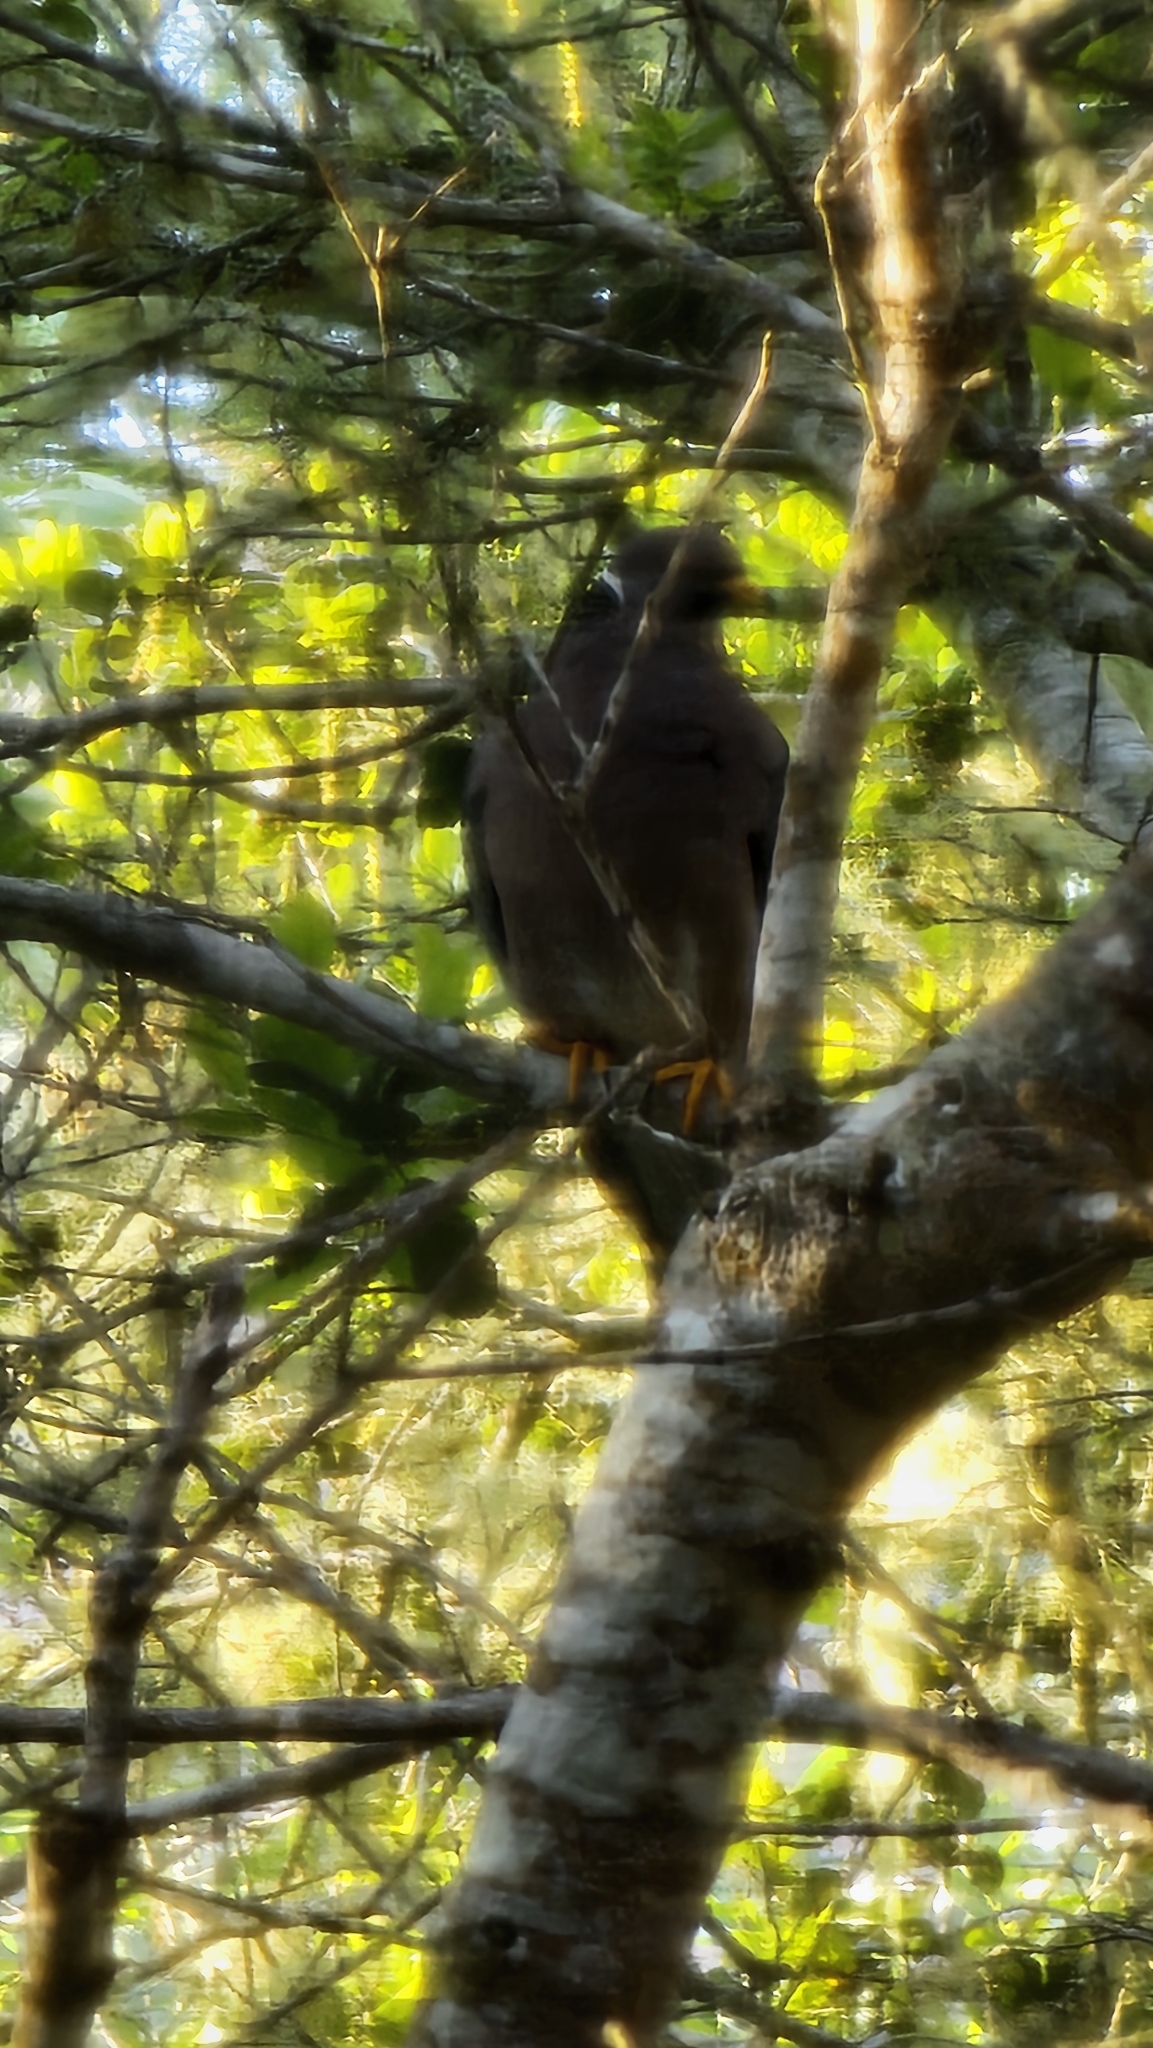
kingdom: Animalia
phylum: Chordata
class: Aves
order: Columbiformes
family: Columbidae
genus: Patagioenas
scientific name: Patagioenas fasciata
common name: Band-tailed pigeon
